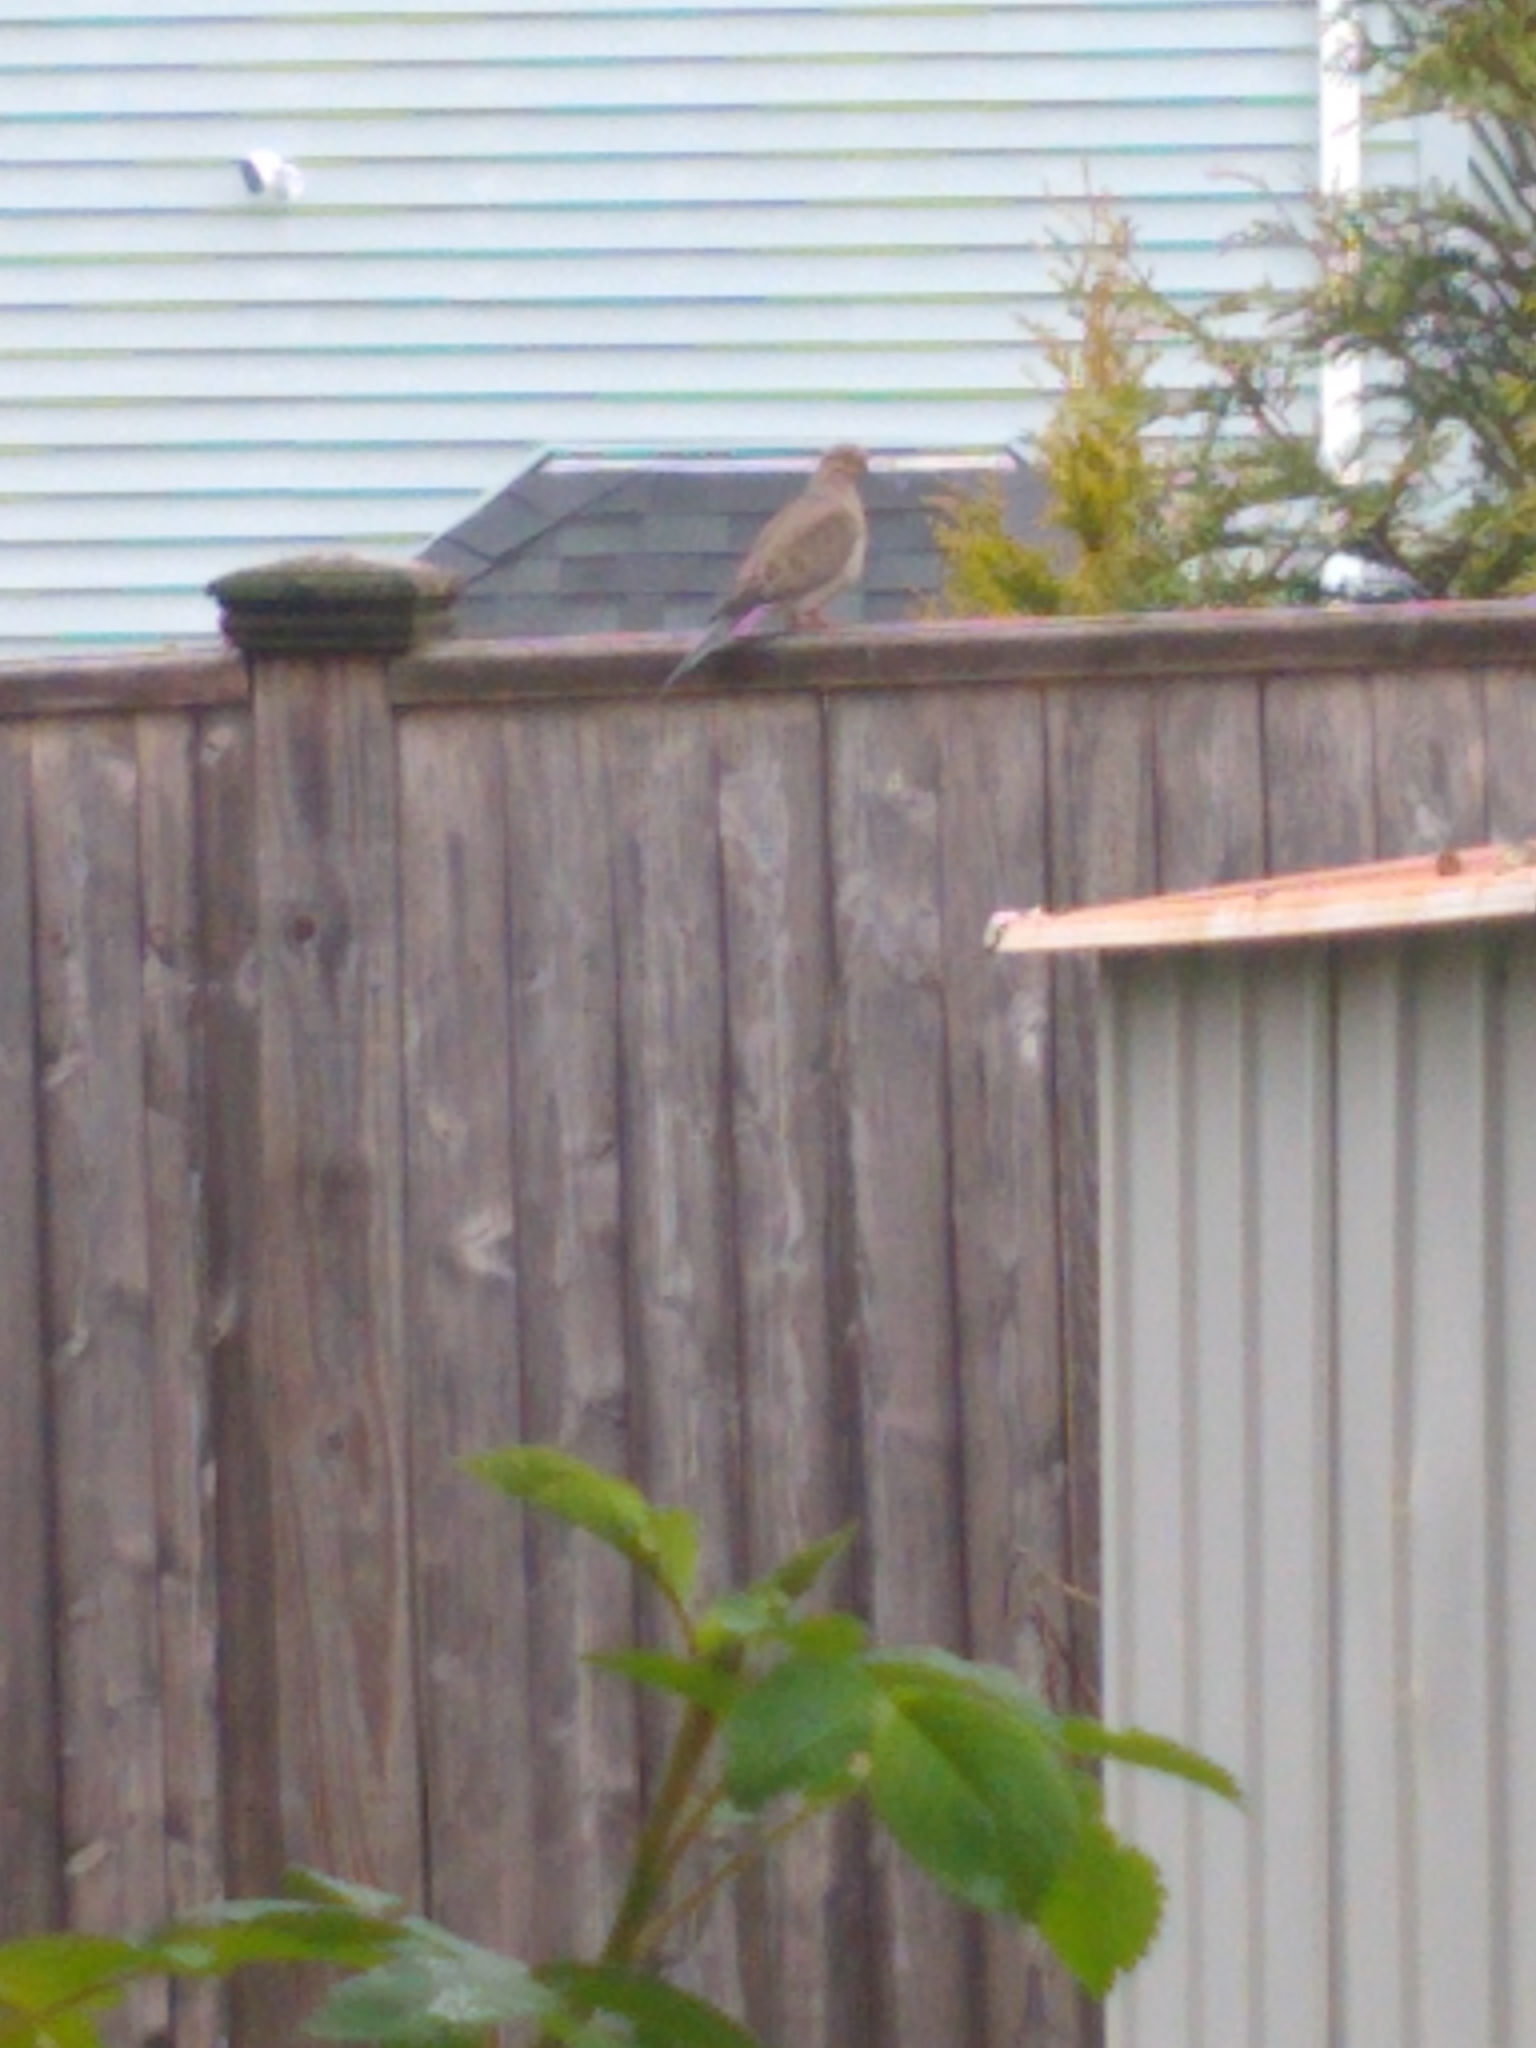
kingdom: Animalia
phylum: Chordata
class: Aves
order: Columbiformes
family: Columbidae
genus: Zenaida
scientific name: Zenaida macroura
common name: Mourning dove
